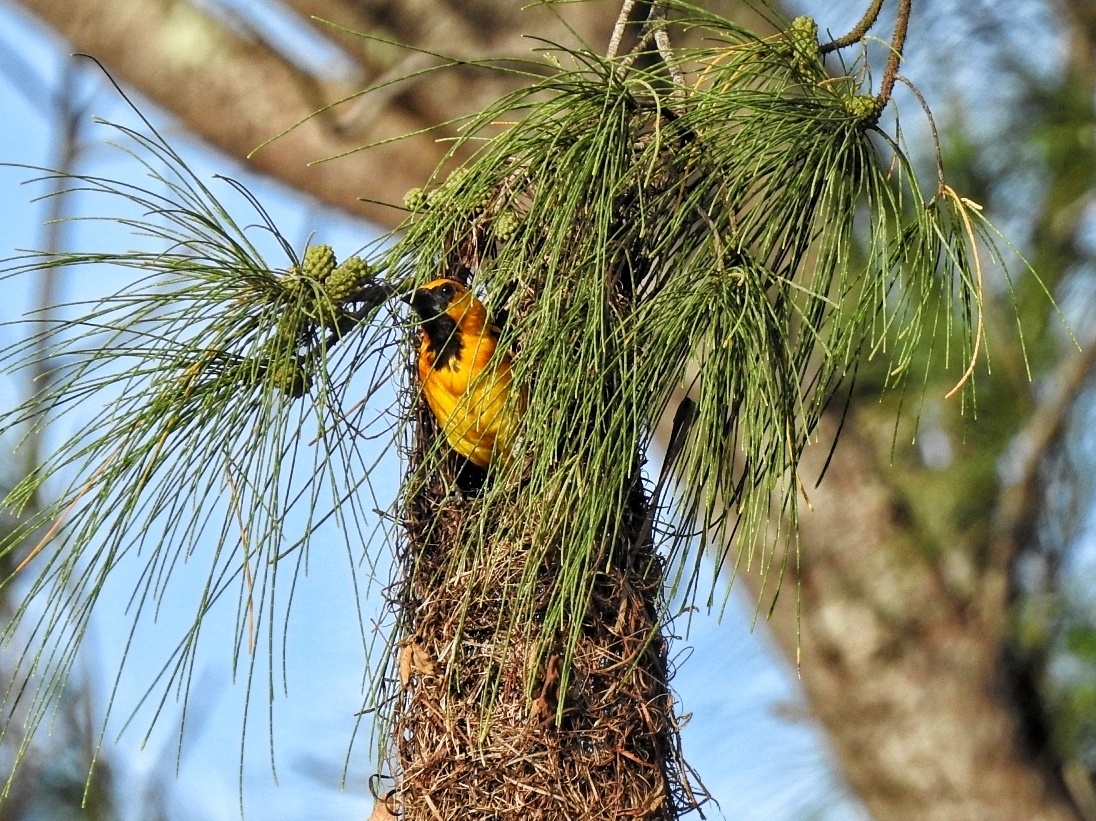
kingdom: Animalia
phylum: Chordata
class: Aves
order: Passeriformes
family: Icteridae
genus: Icterus
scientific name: Icterus gularis
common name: Altamira oriole
